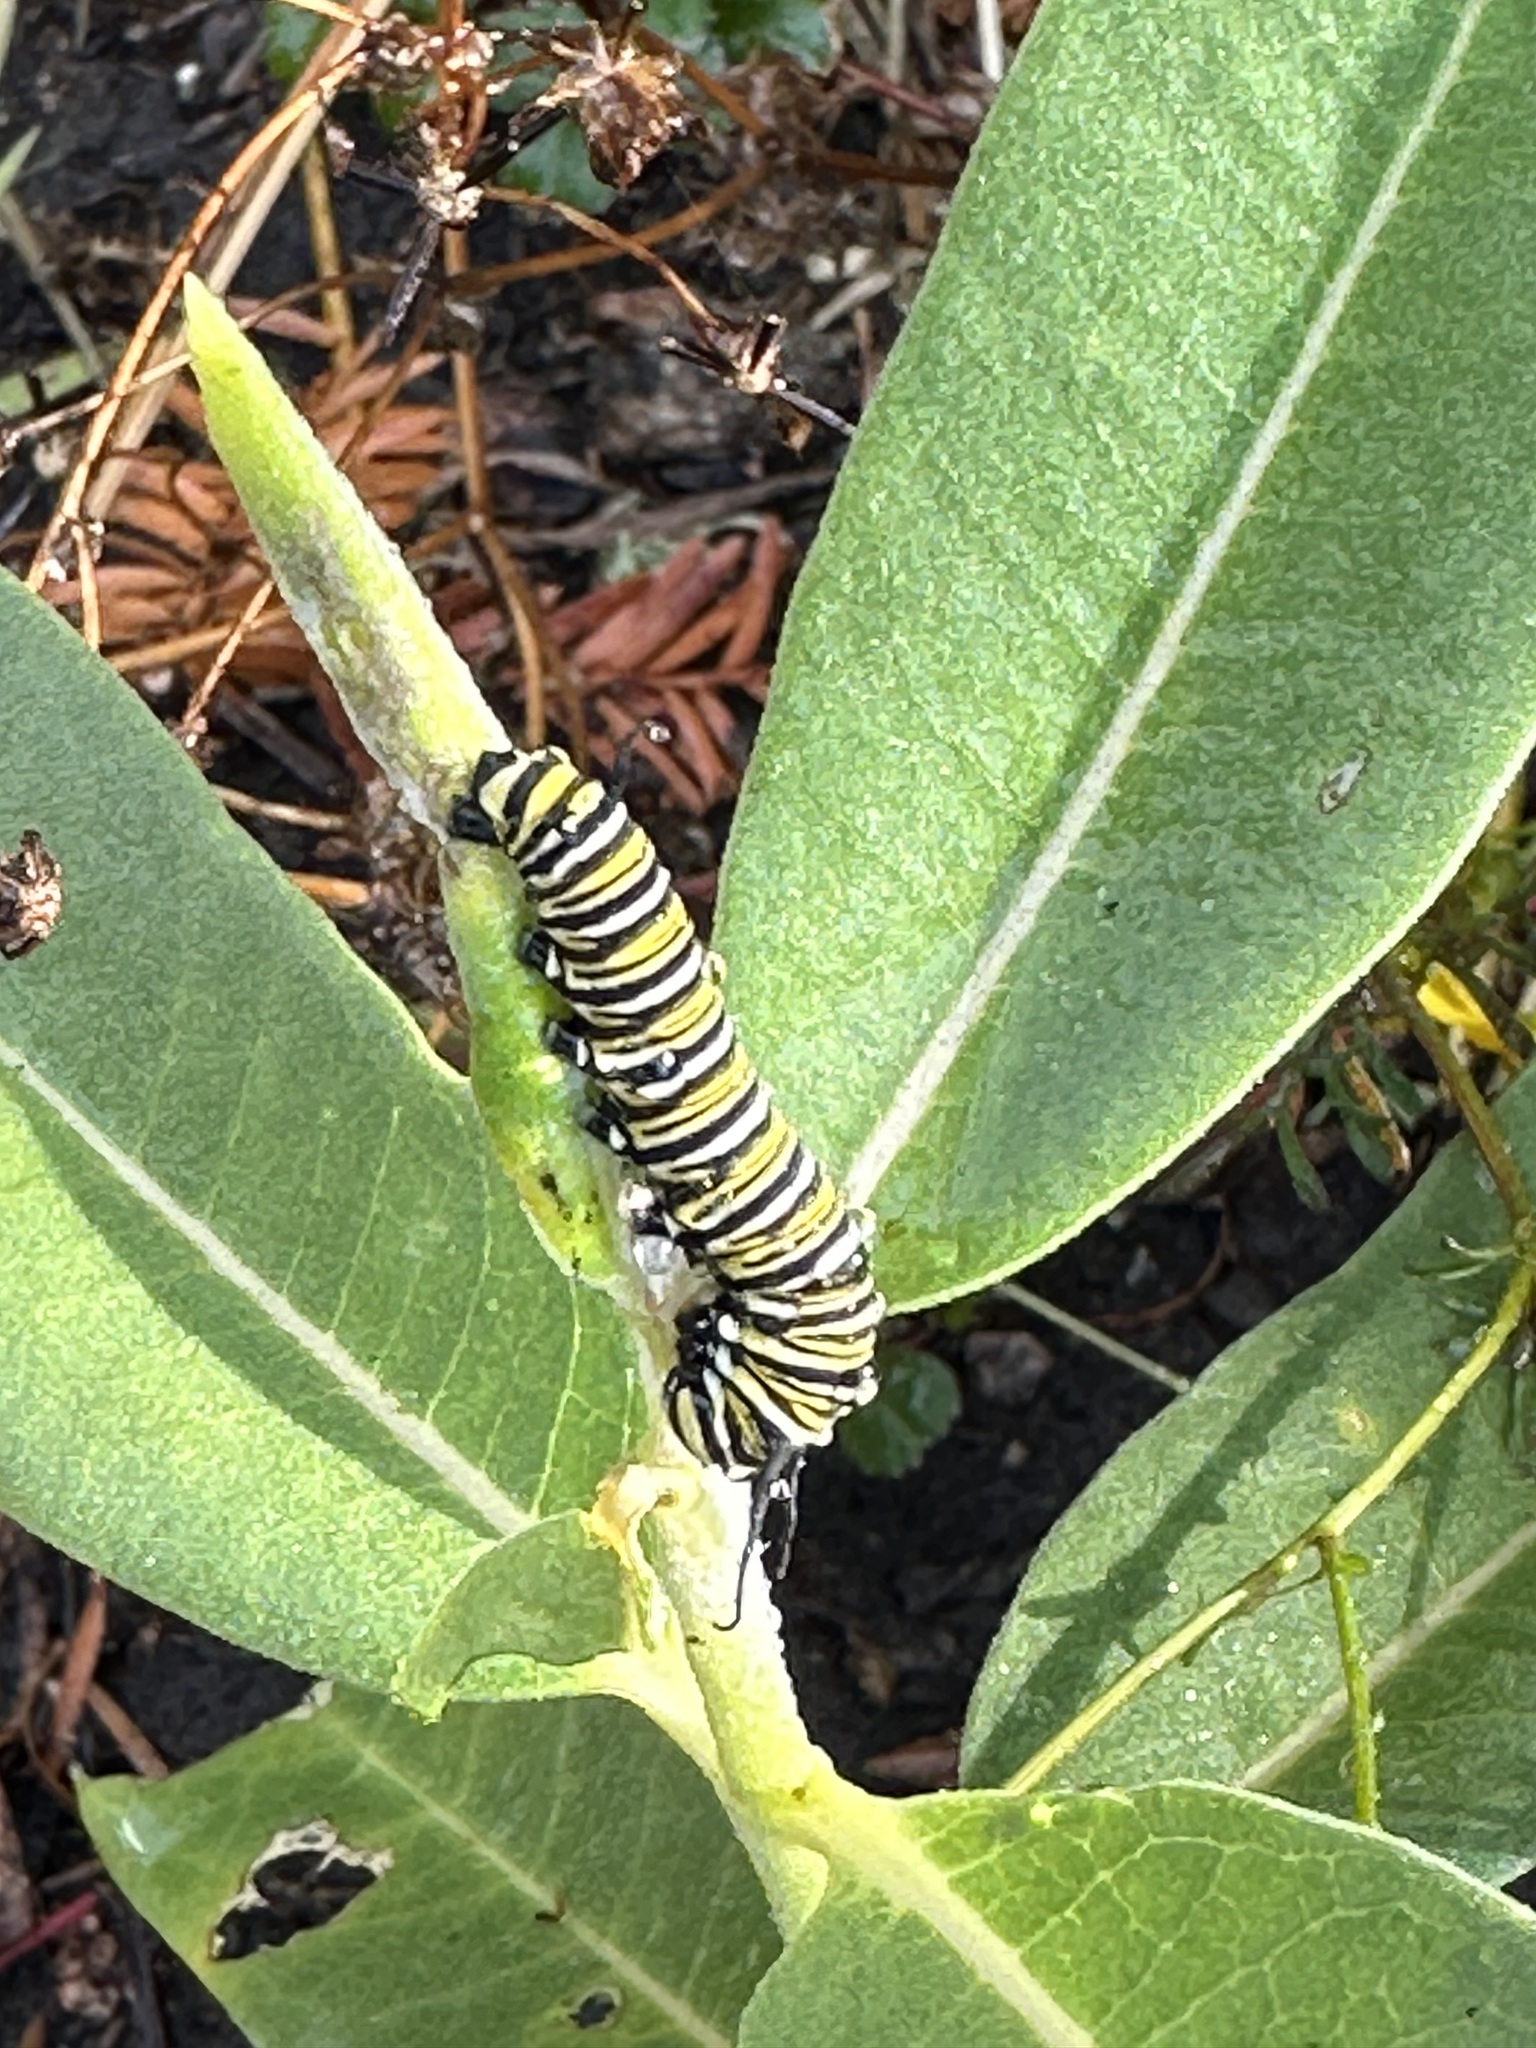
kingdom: Animalia
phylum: Arthropoda
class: Insecta
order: Lepidoptera
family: Nymphalidae
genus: Danaus
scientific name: Danaus plexippus
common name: Monarch
